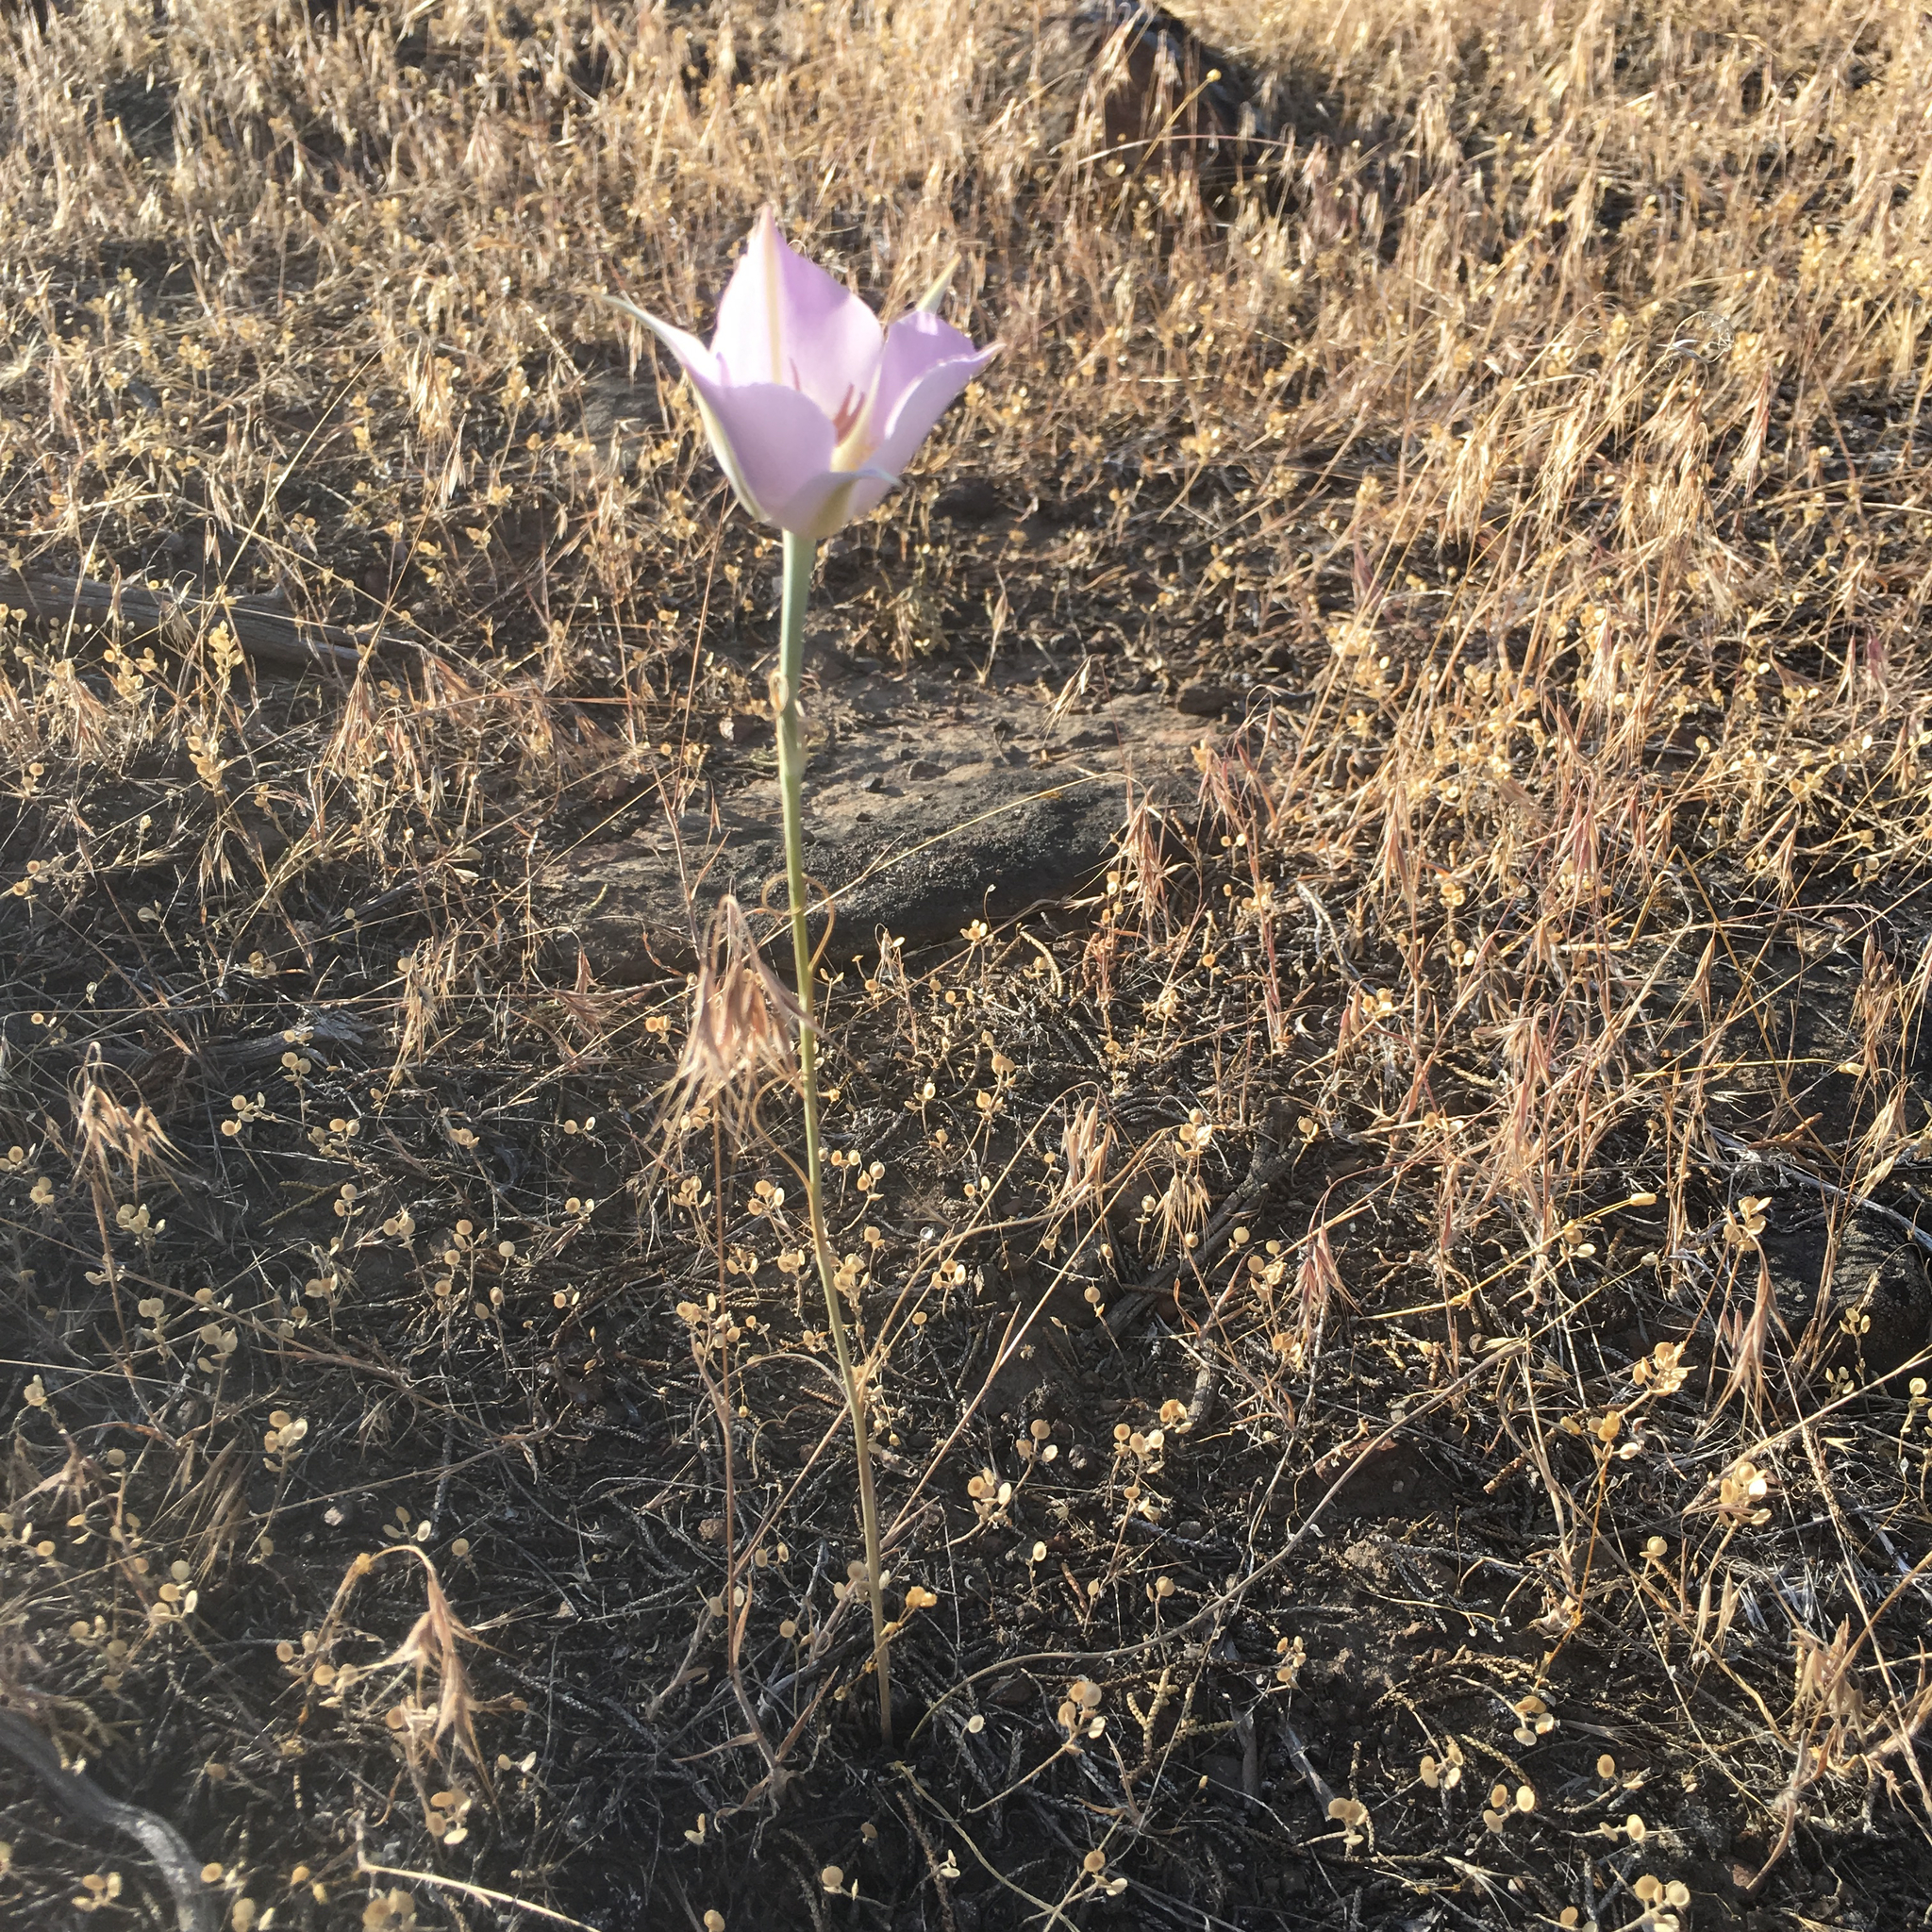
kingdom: Plantae
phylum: Tracheophyta
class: Liliopsida
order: Liliales
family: Liliaceae
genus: Calochortus
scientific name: Calochortus macrocarpus
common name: Green-band mariposa lily
